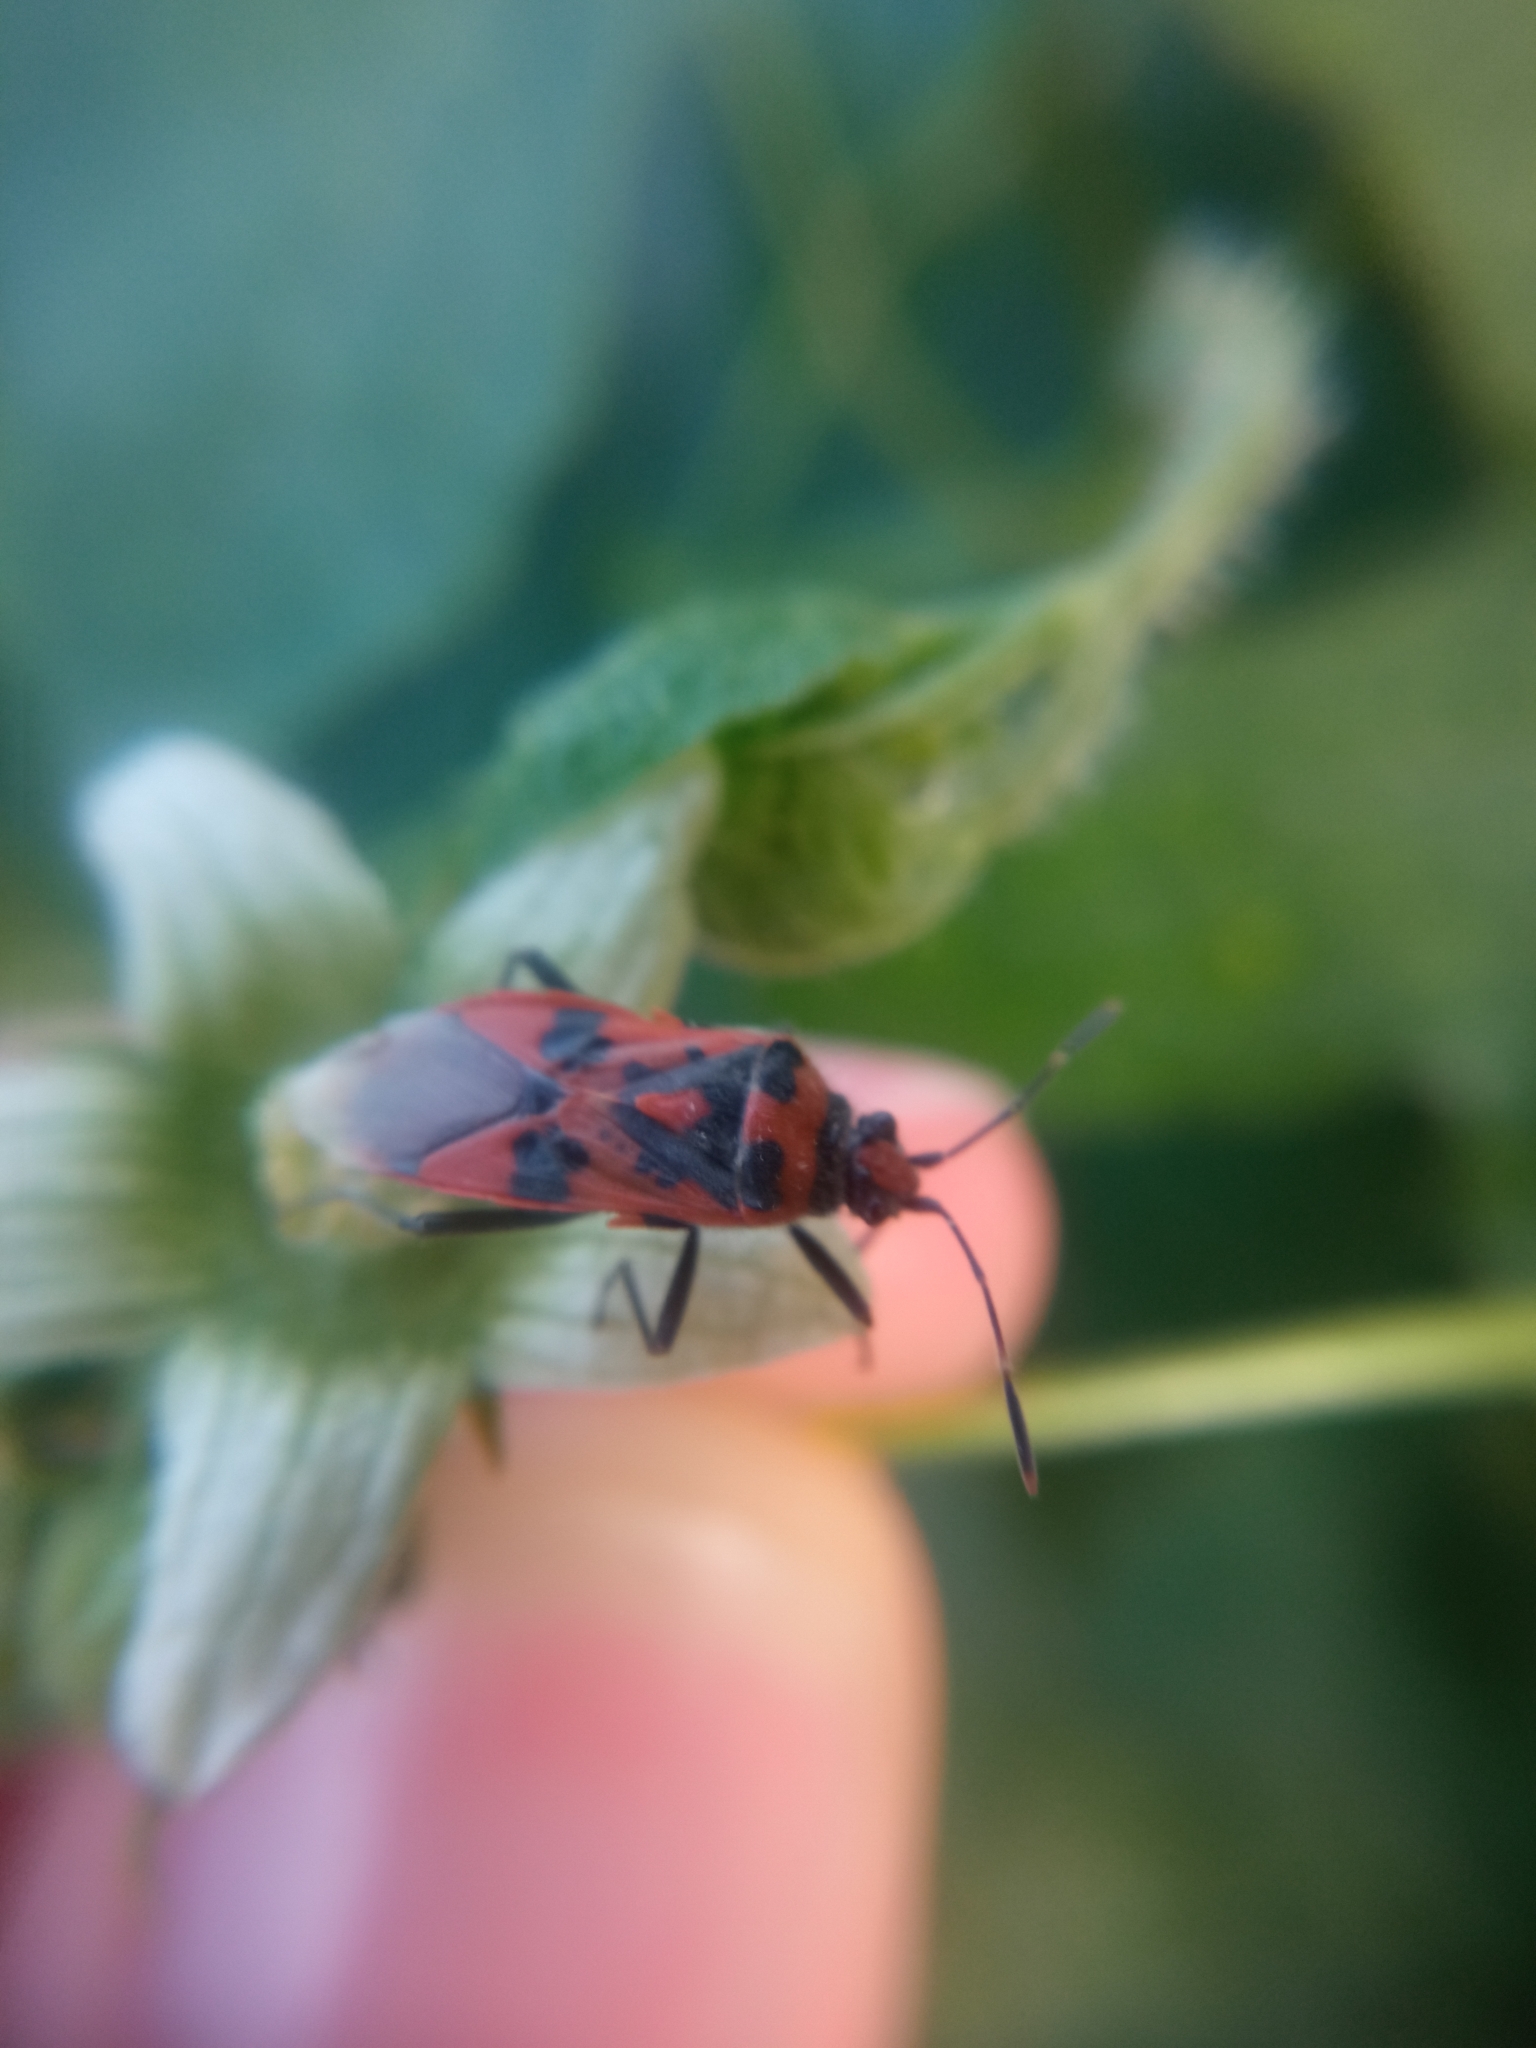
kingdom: Animalia
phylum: Arthropoda
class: Insecta
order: Hemiptera
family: Rhopalidae
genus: Corizus
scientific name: Corizus hyoscyami
